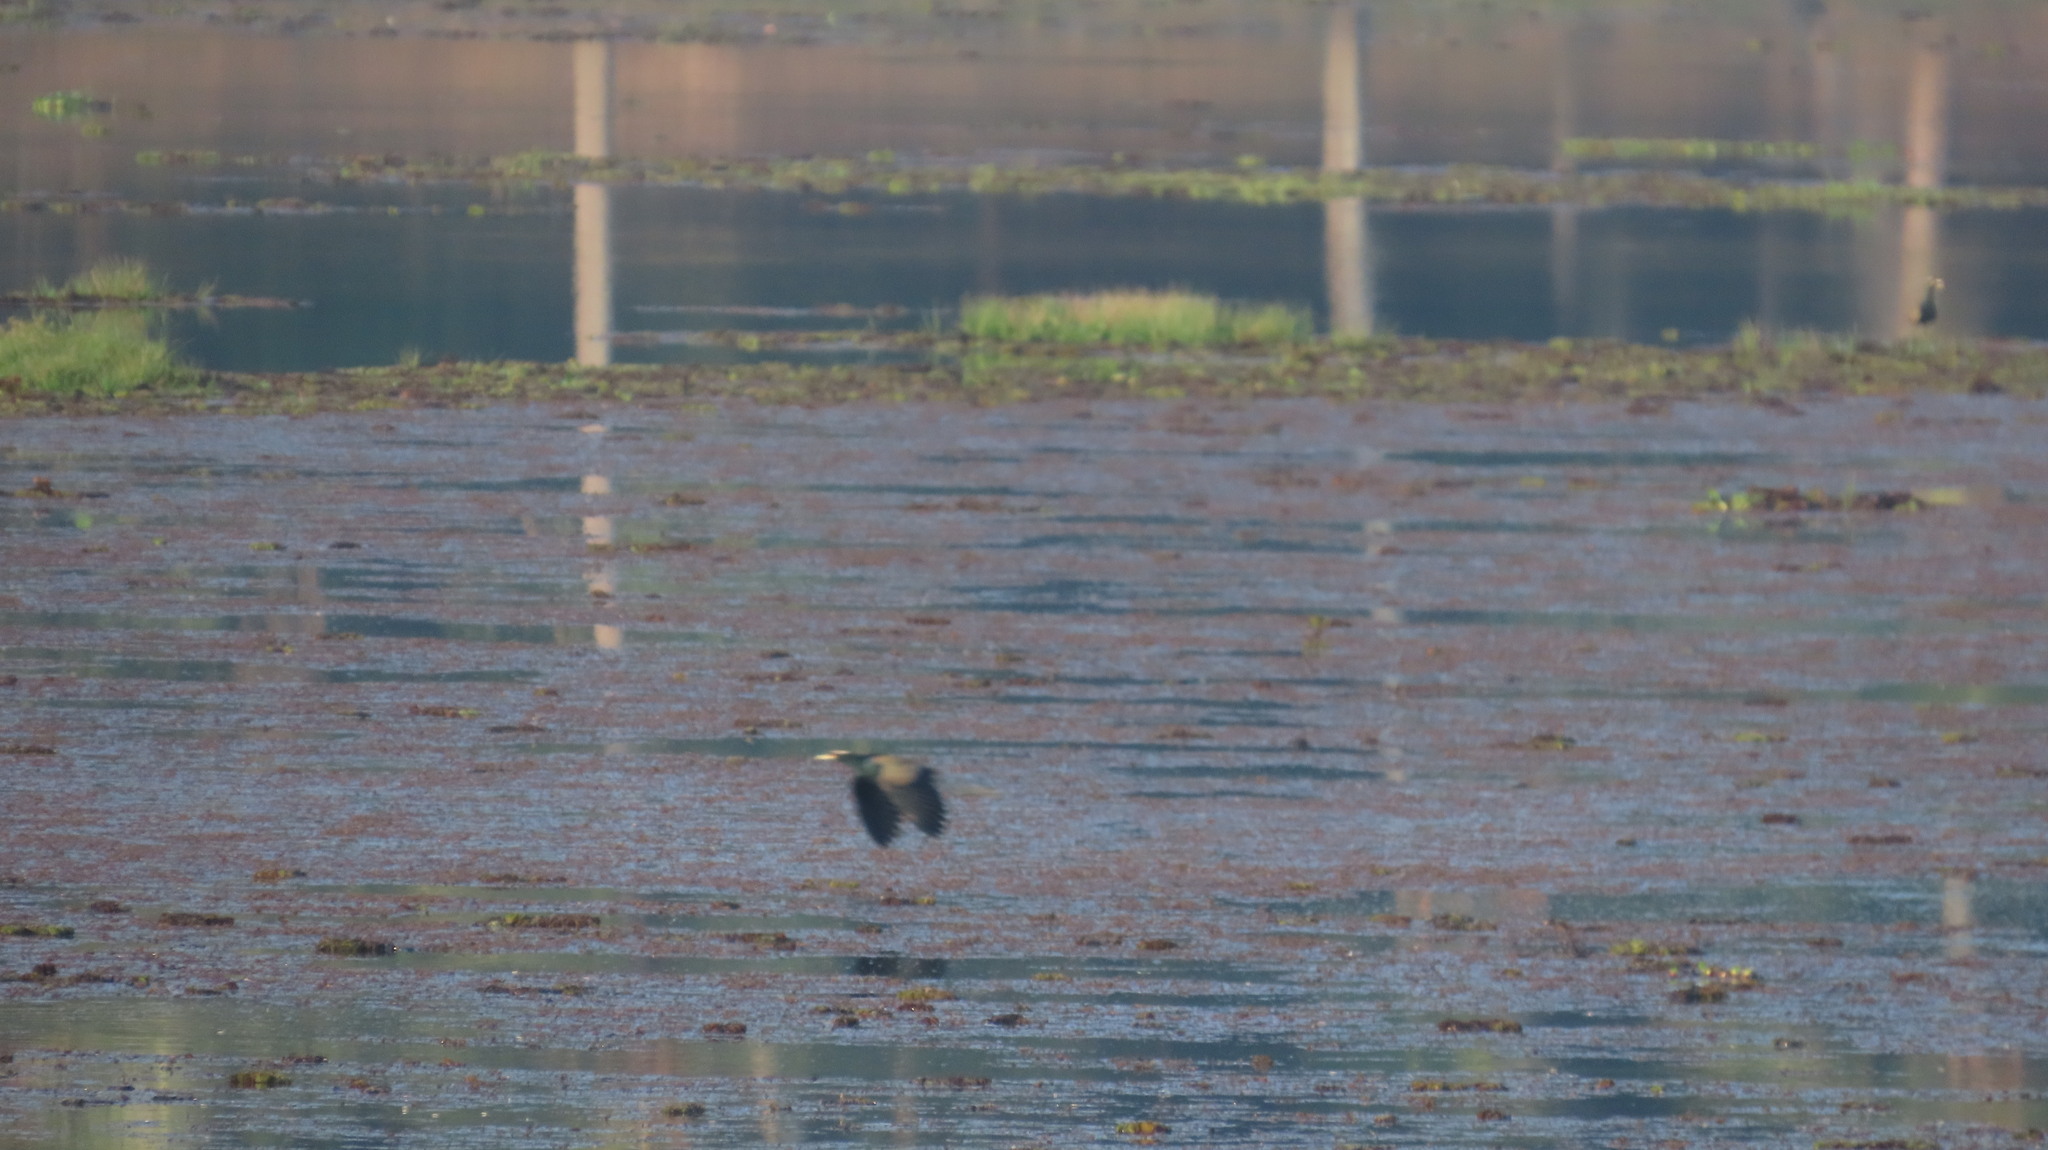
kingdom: Animalia
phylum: Chordata
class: Aves
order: Charadriiformes
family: Jacanidae
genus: Metopidius
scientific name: Metopidius indicus
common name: Bronze-winged jacana
